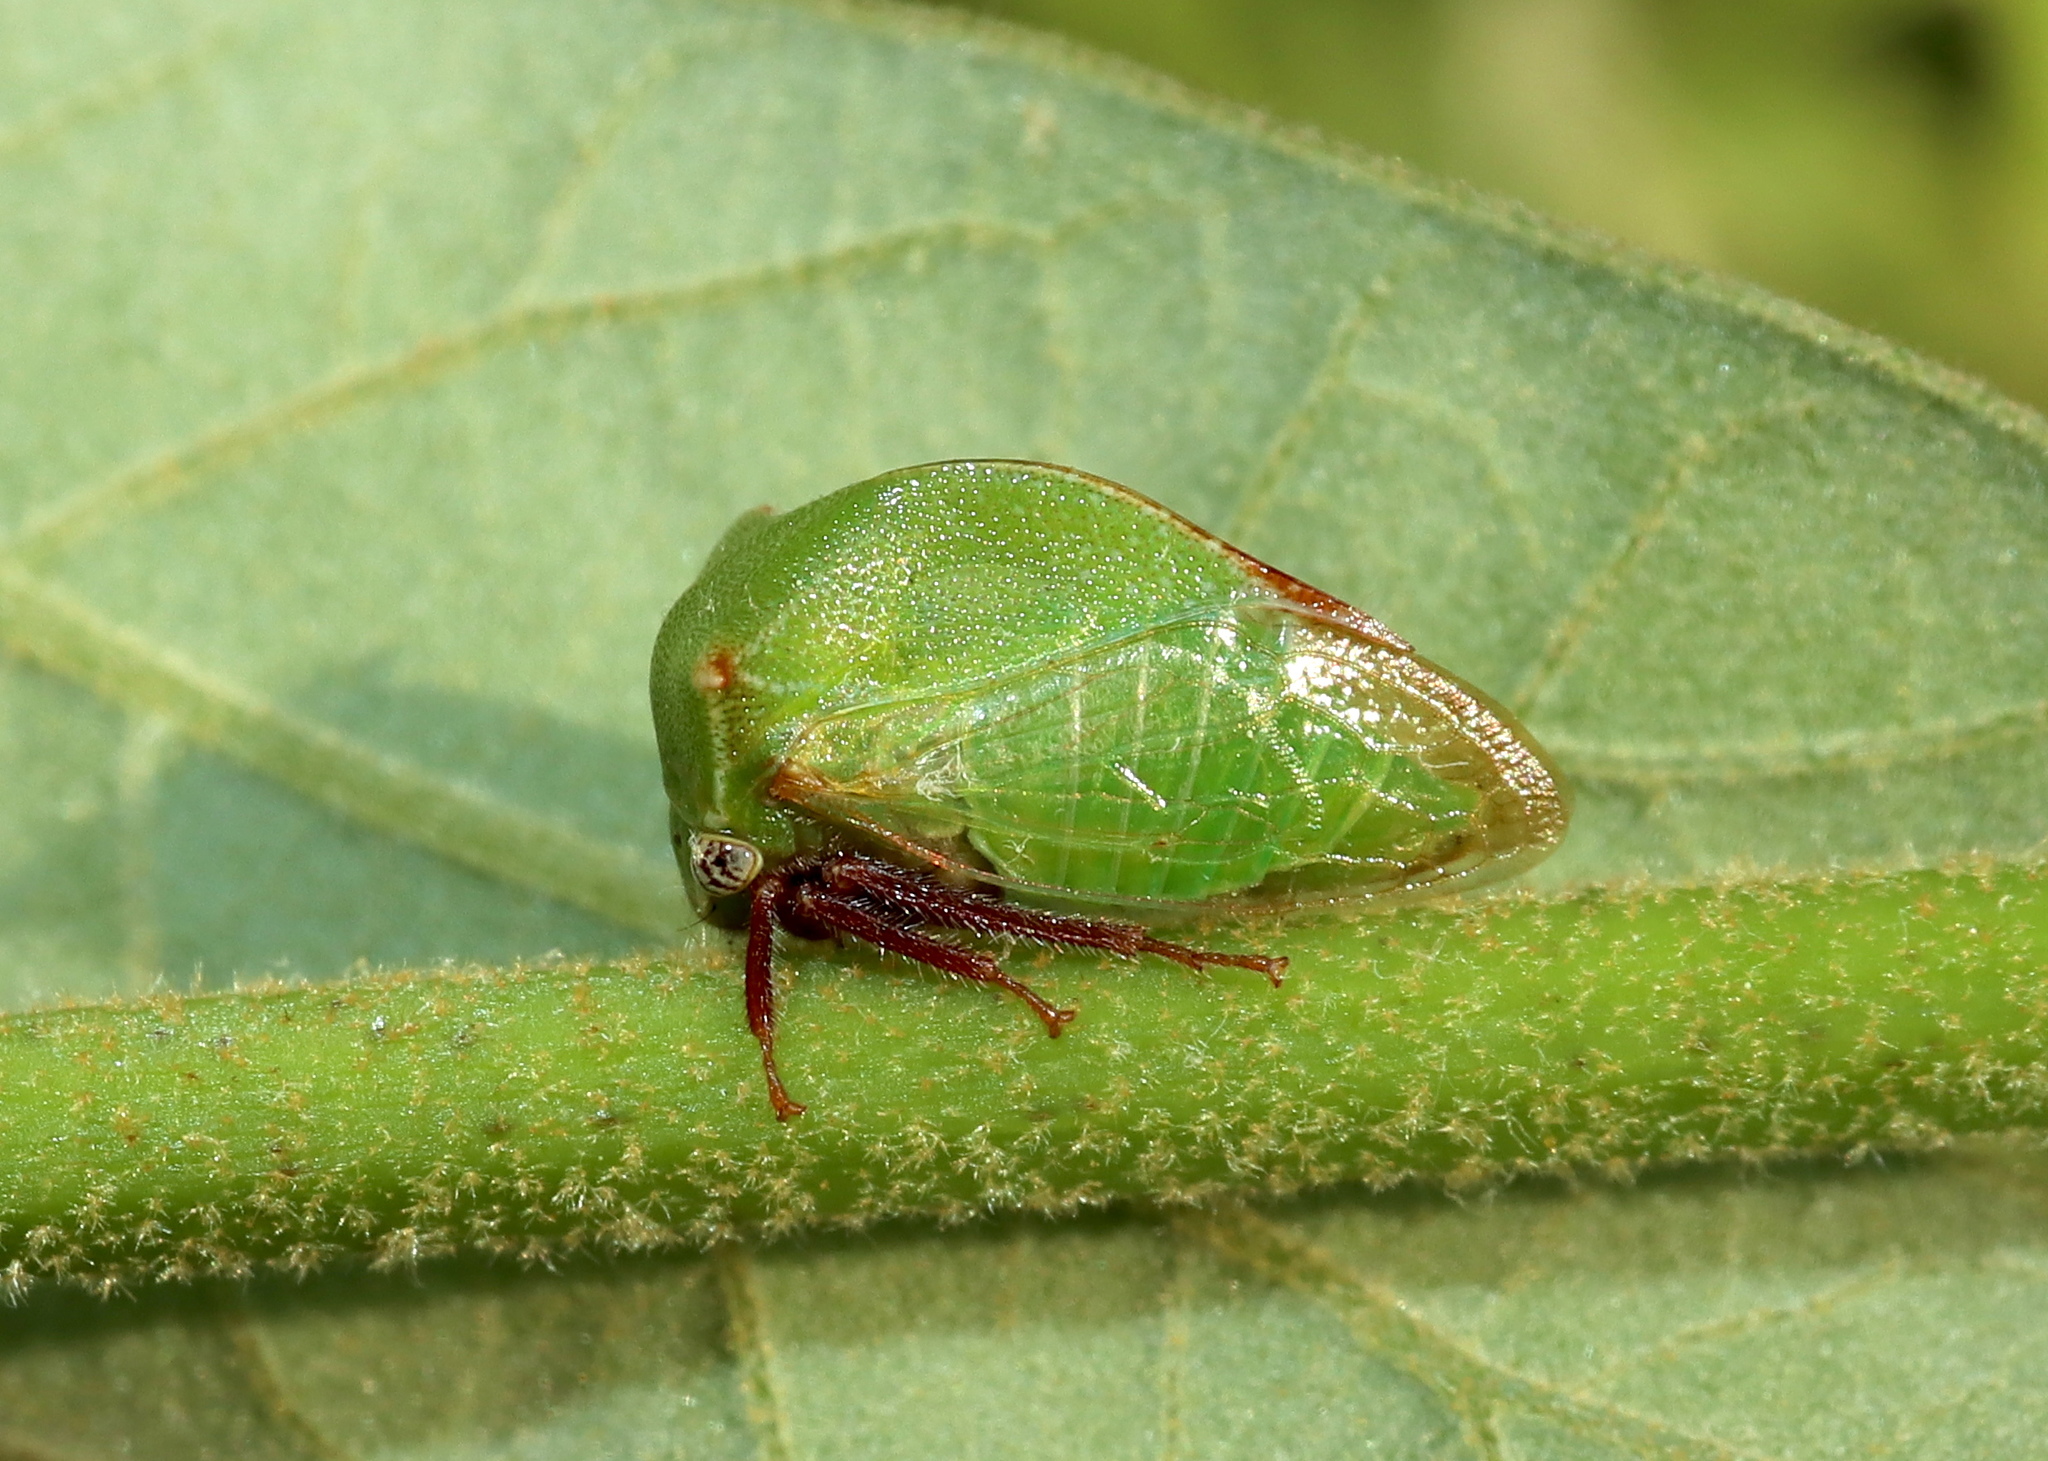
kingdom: Animalia
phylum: Arthropoda
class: Insecta
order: Hemiptera
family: Membracidae
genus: Stictocephala
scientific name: Stictocephala brevitylus
